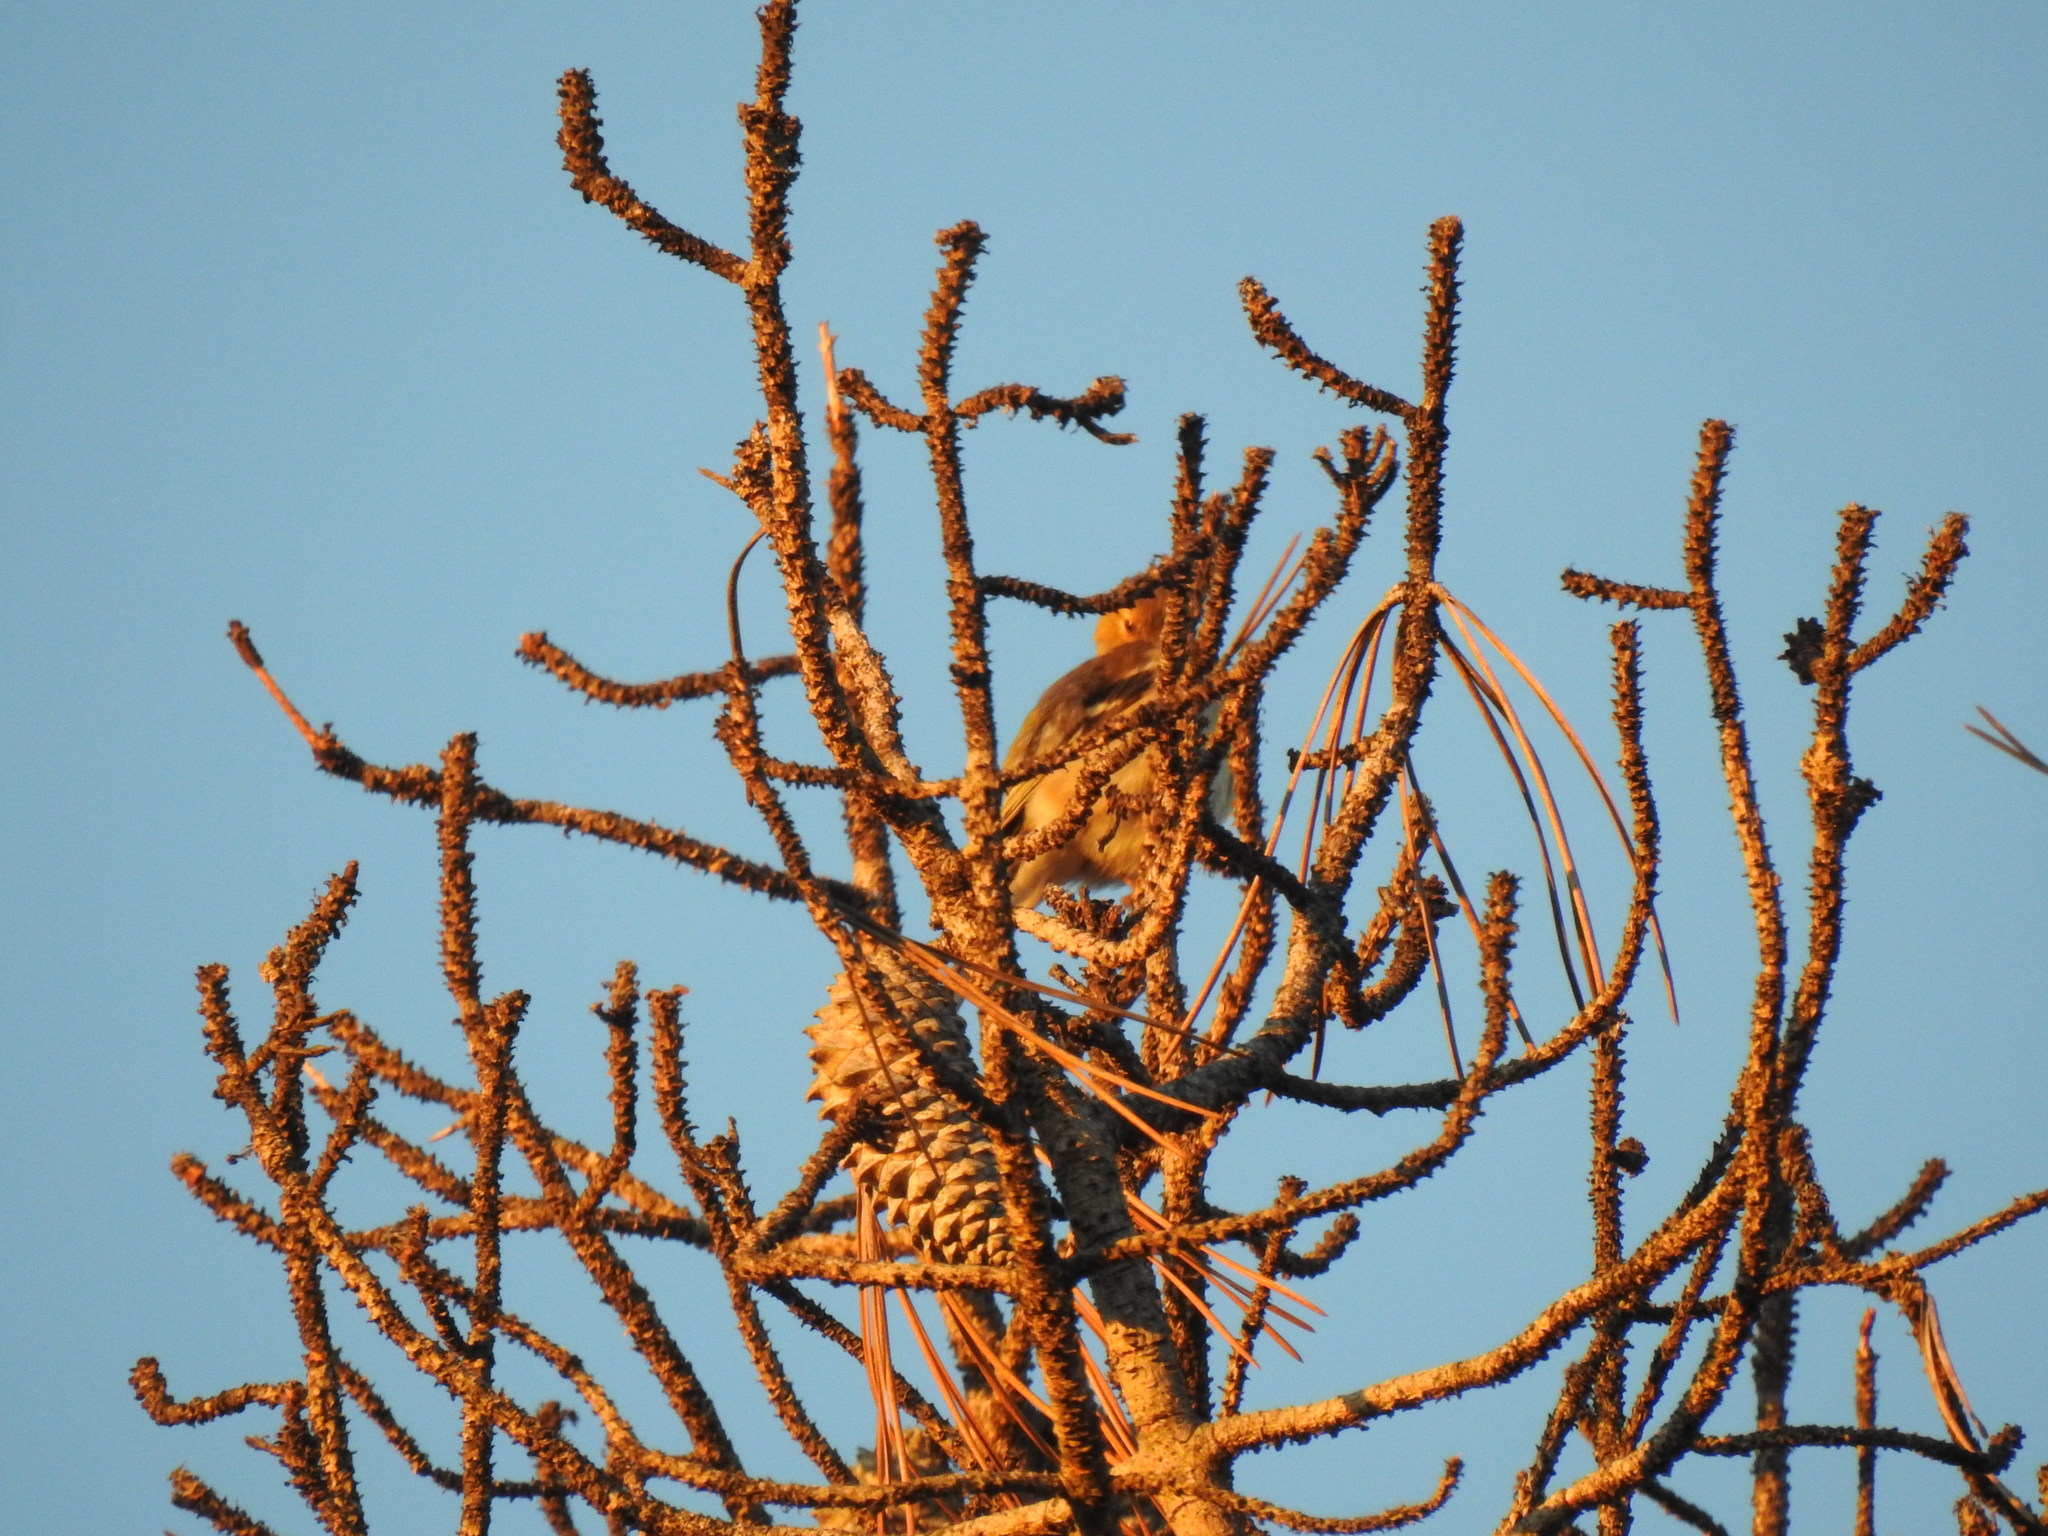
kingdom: Animalia
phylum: Chordata
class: Aves
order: Passeriformes
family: Fringillidae
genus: Fringilla
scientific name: Fringilla coelebs
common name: Common chaffinch
